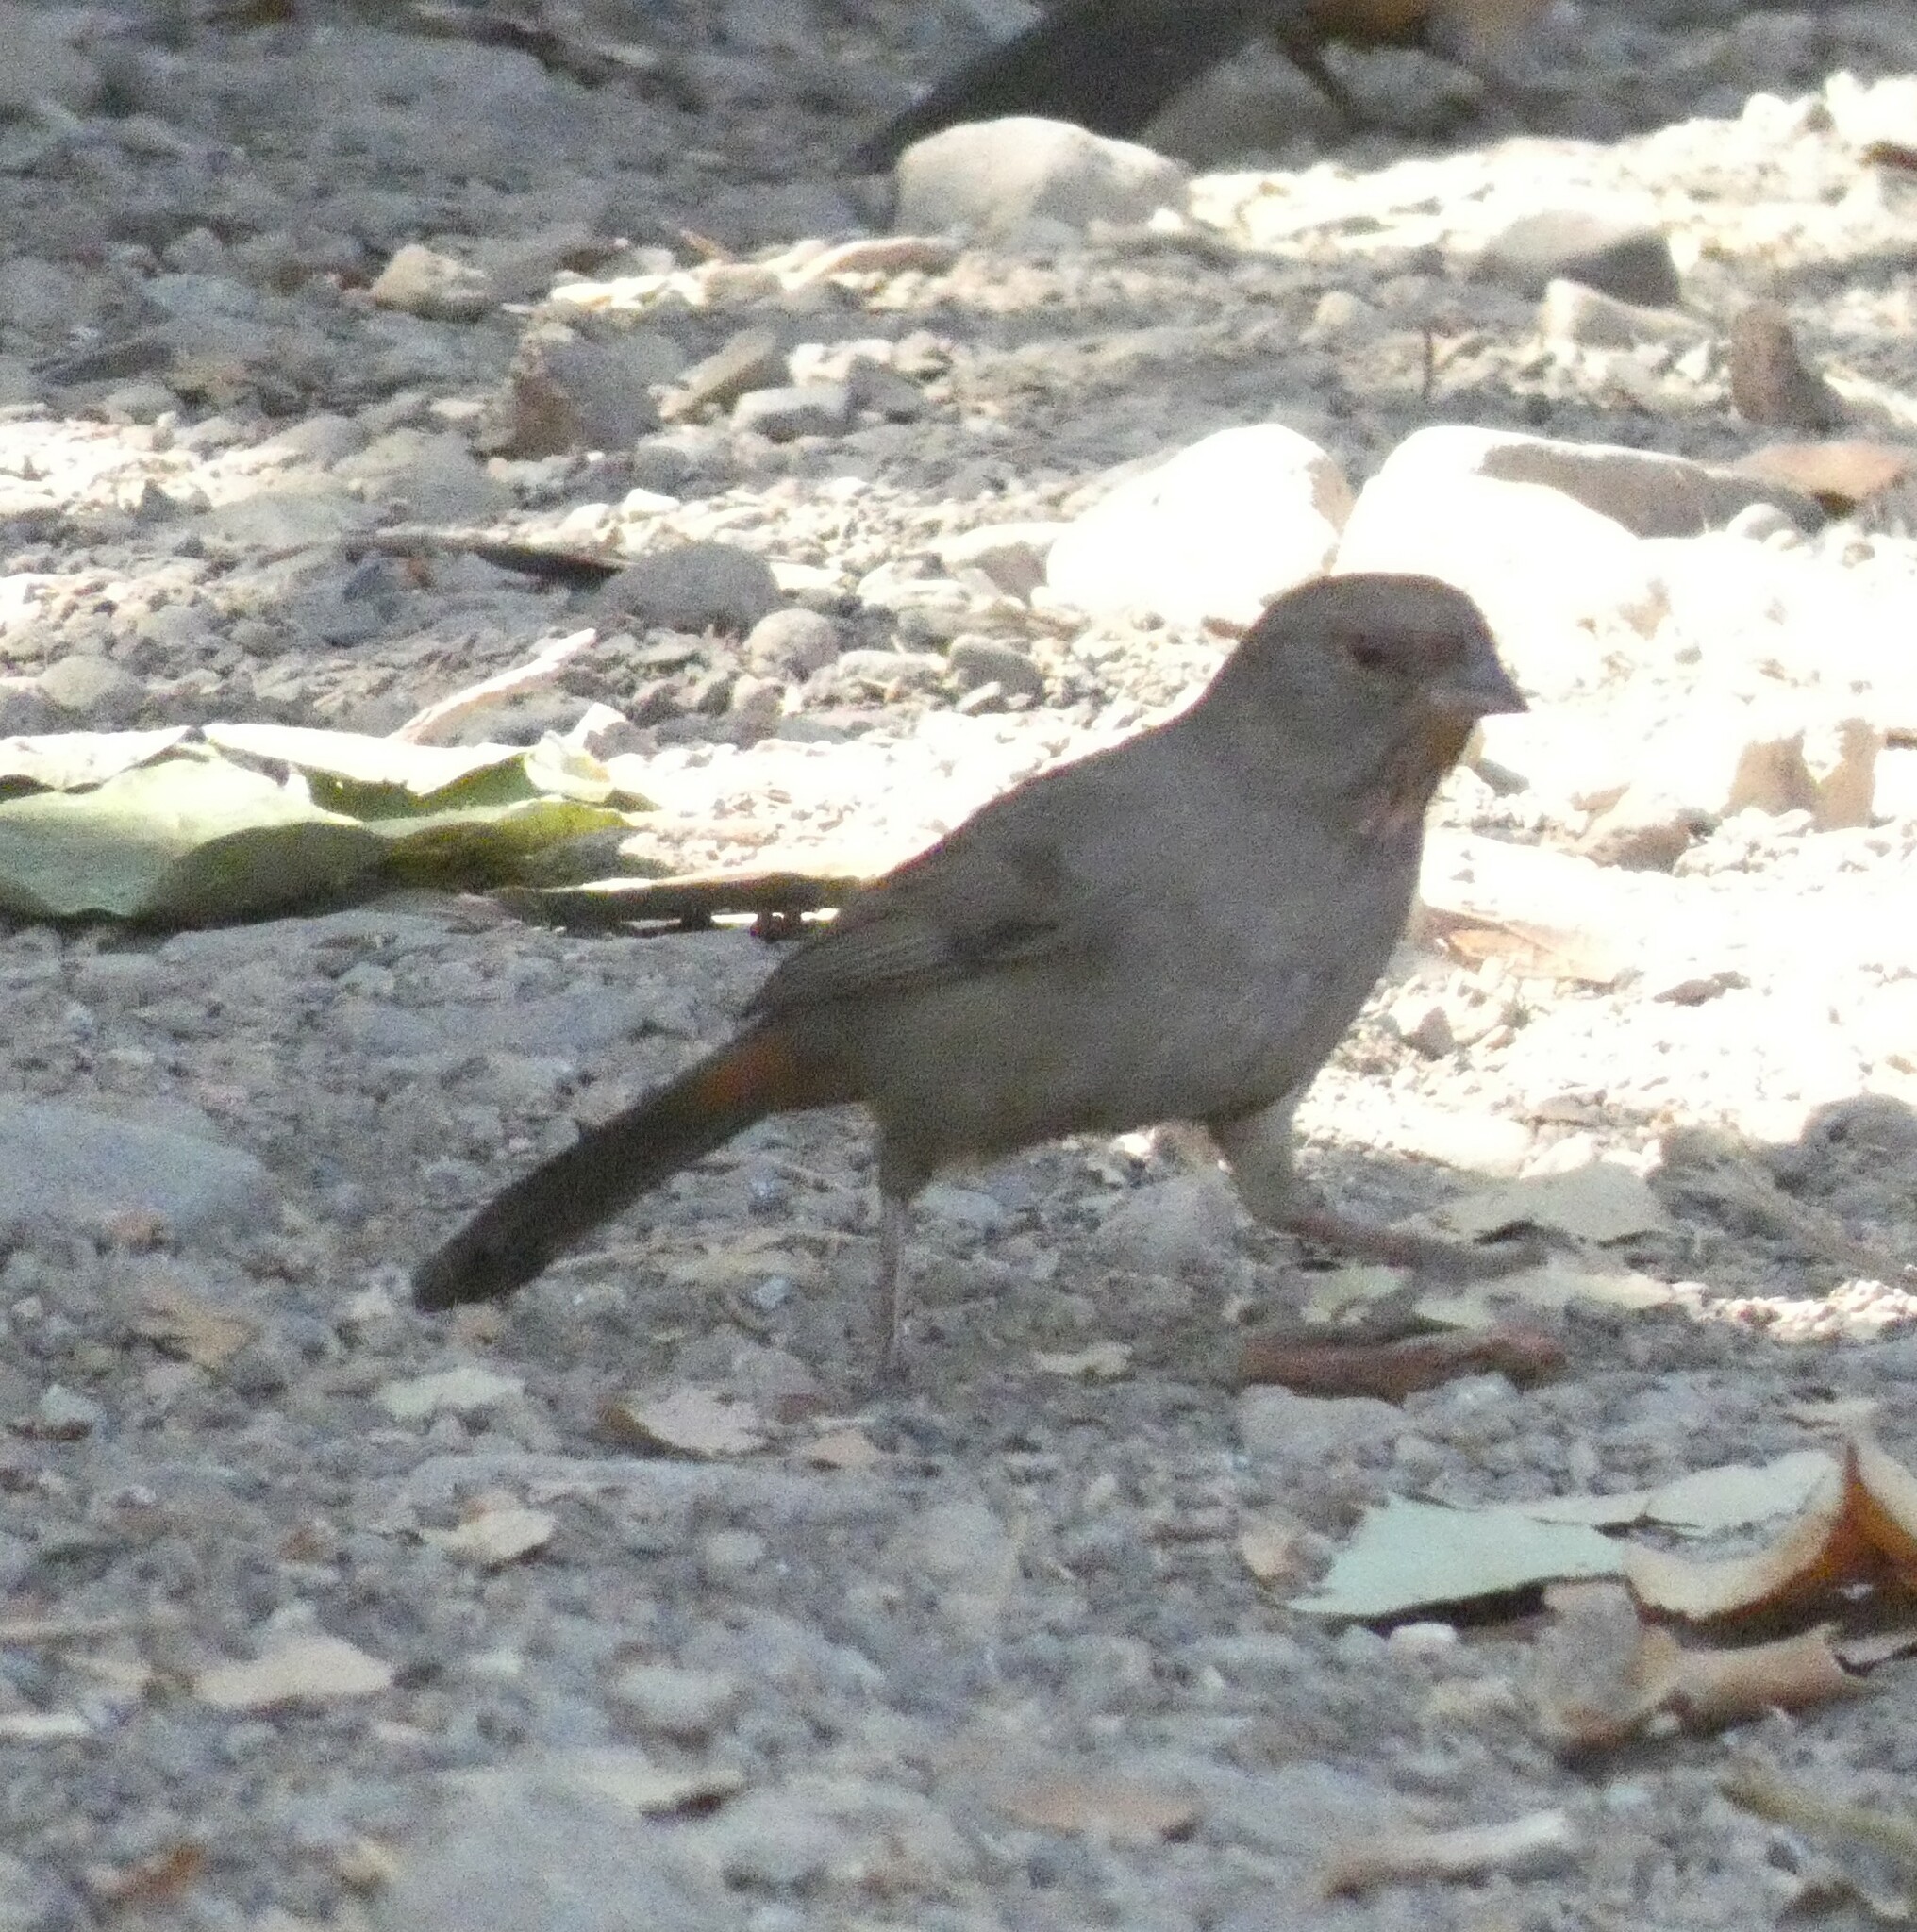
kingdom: Animalia
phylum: Chordata
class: Aves
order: Passeriformes
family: Passerellidae
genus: Melozone
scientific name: Melozone crissalis
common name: California towhee
